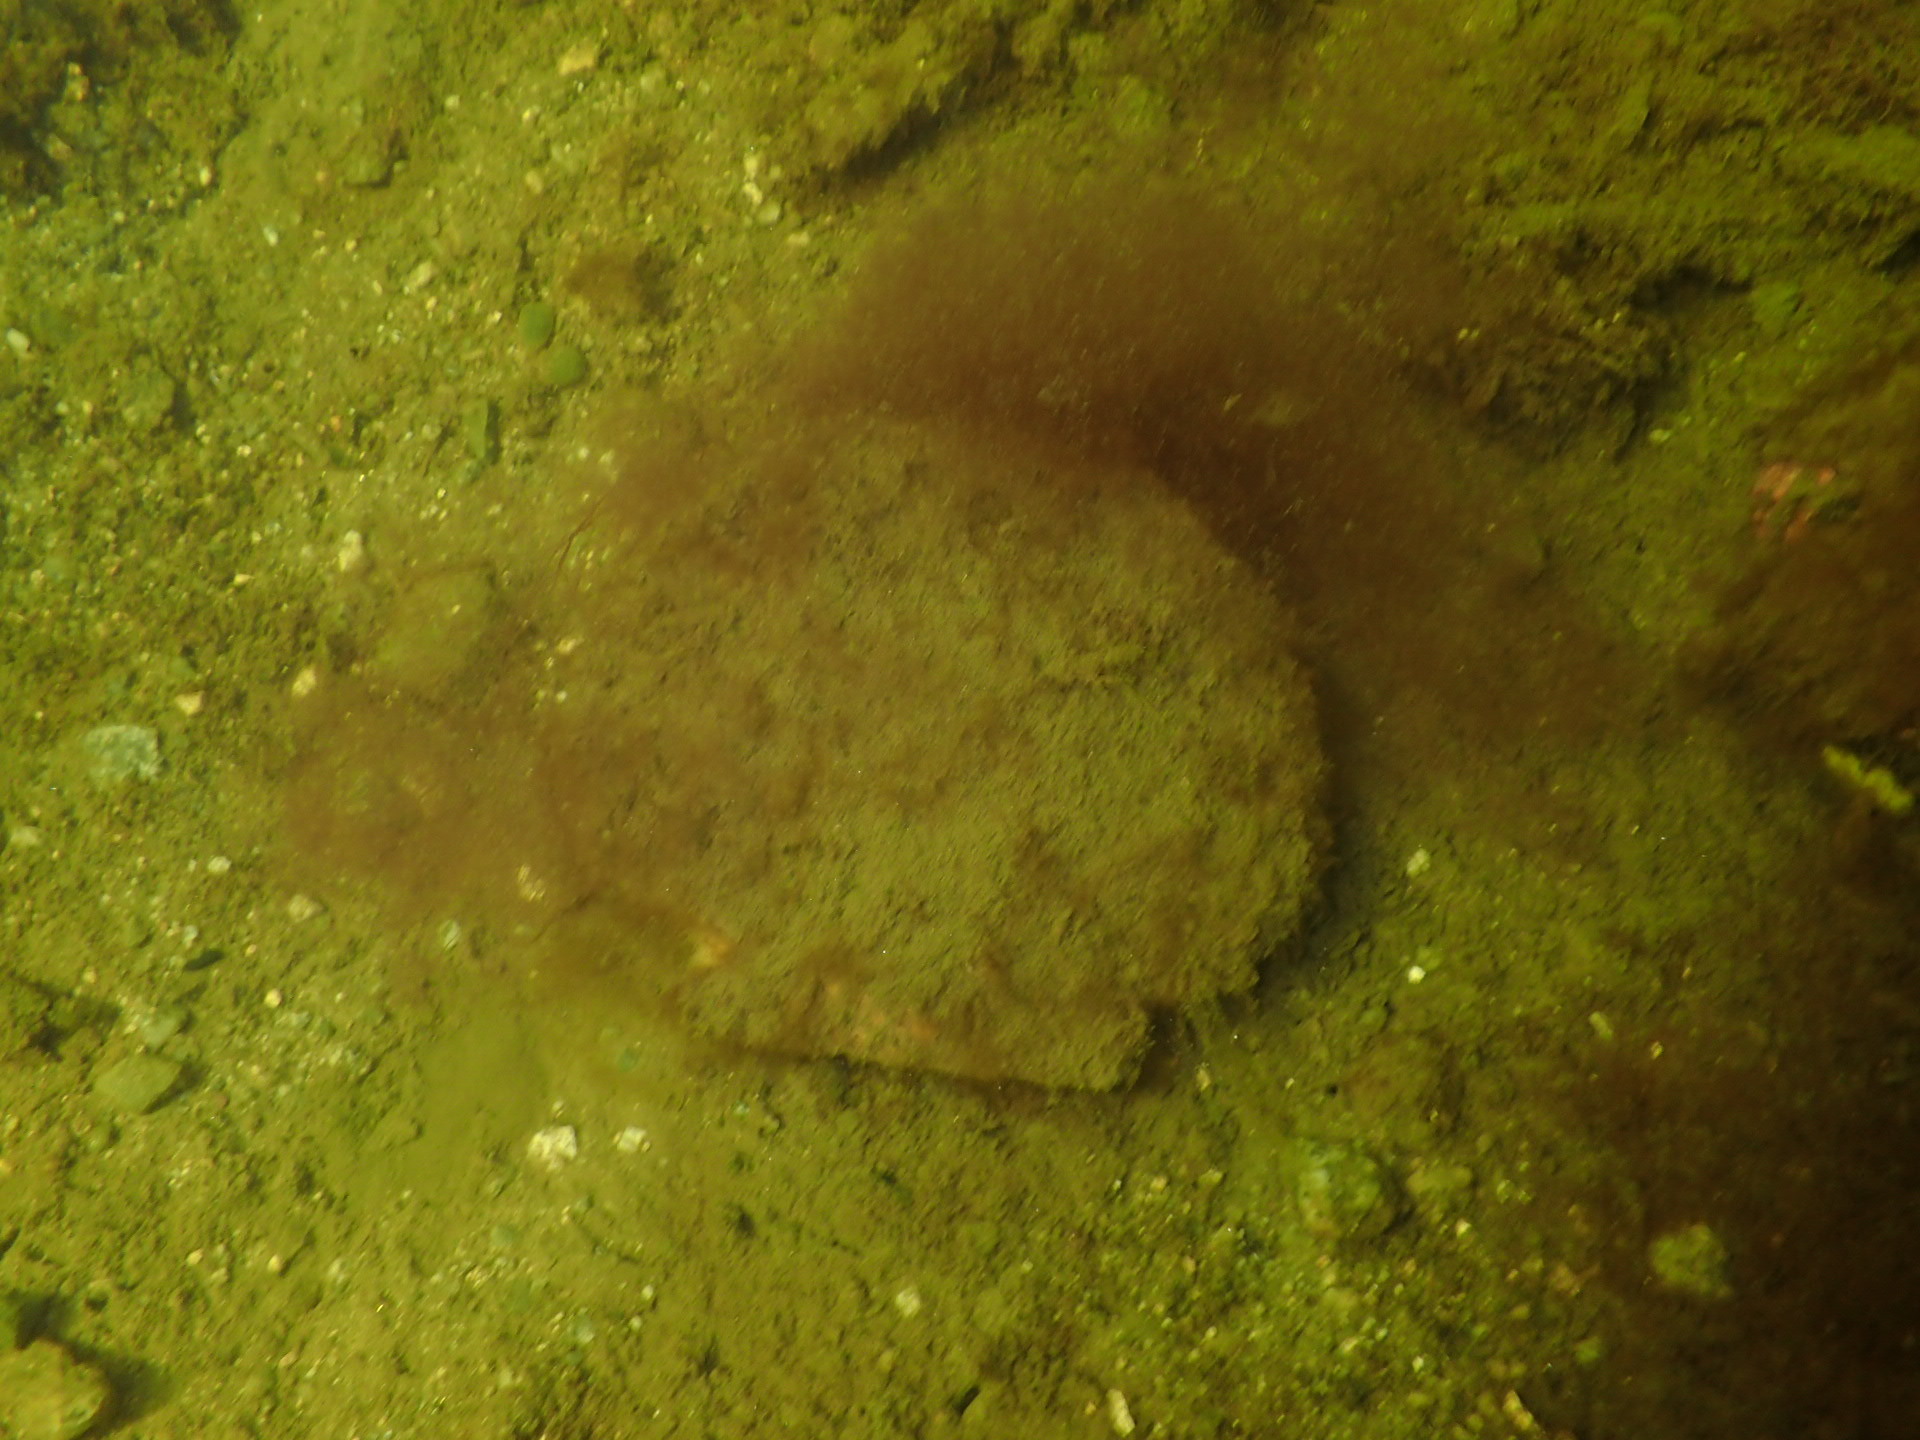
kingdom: Animalia
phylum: Mollusca
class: Bivalvia
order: Pectinida
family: Pectinidae
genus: Placopecten
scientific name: Placopecten magellanicus
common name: American sea scallop
